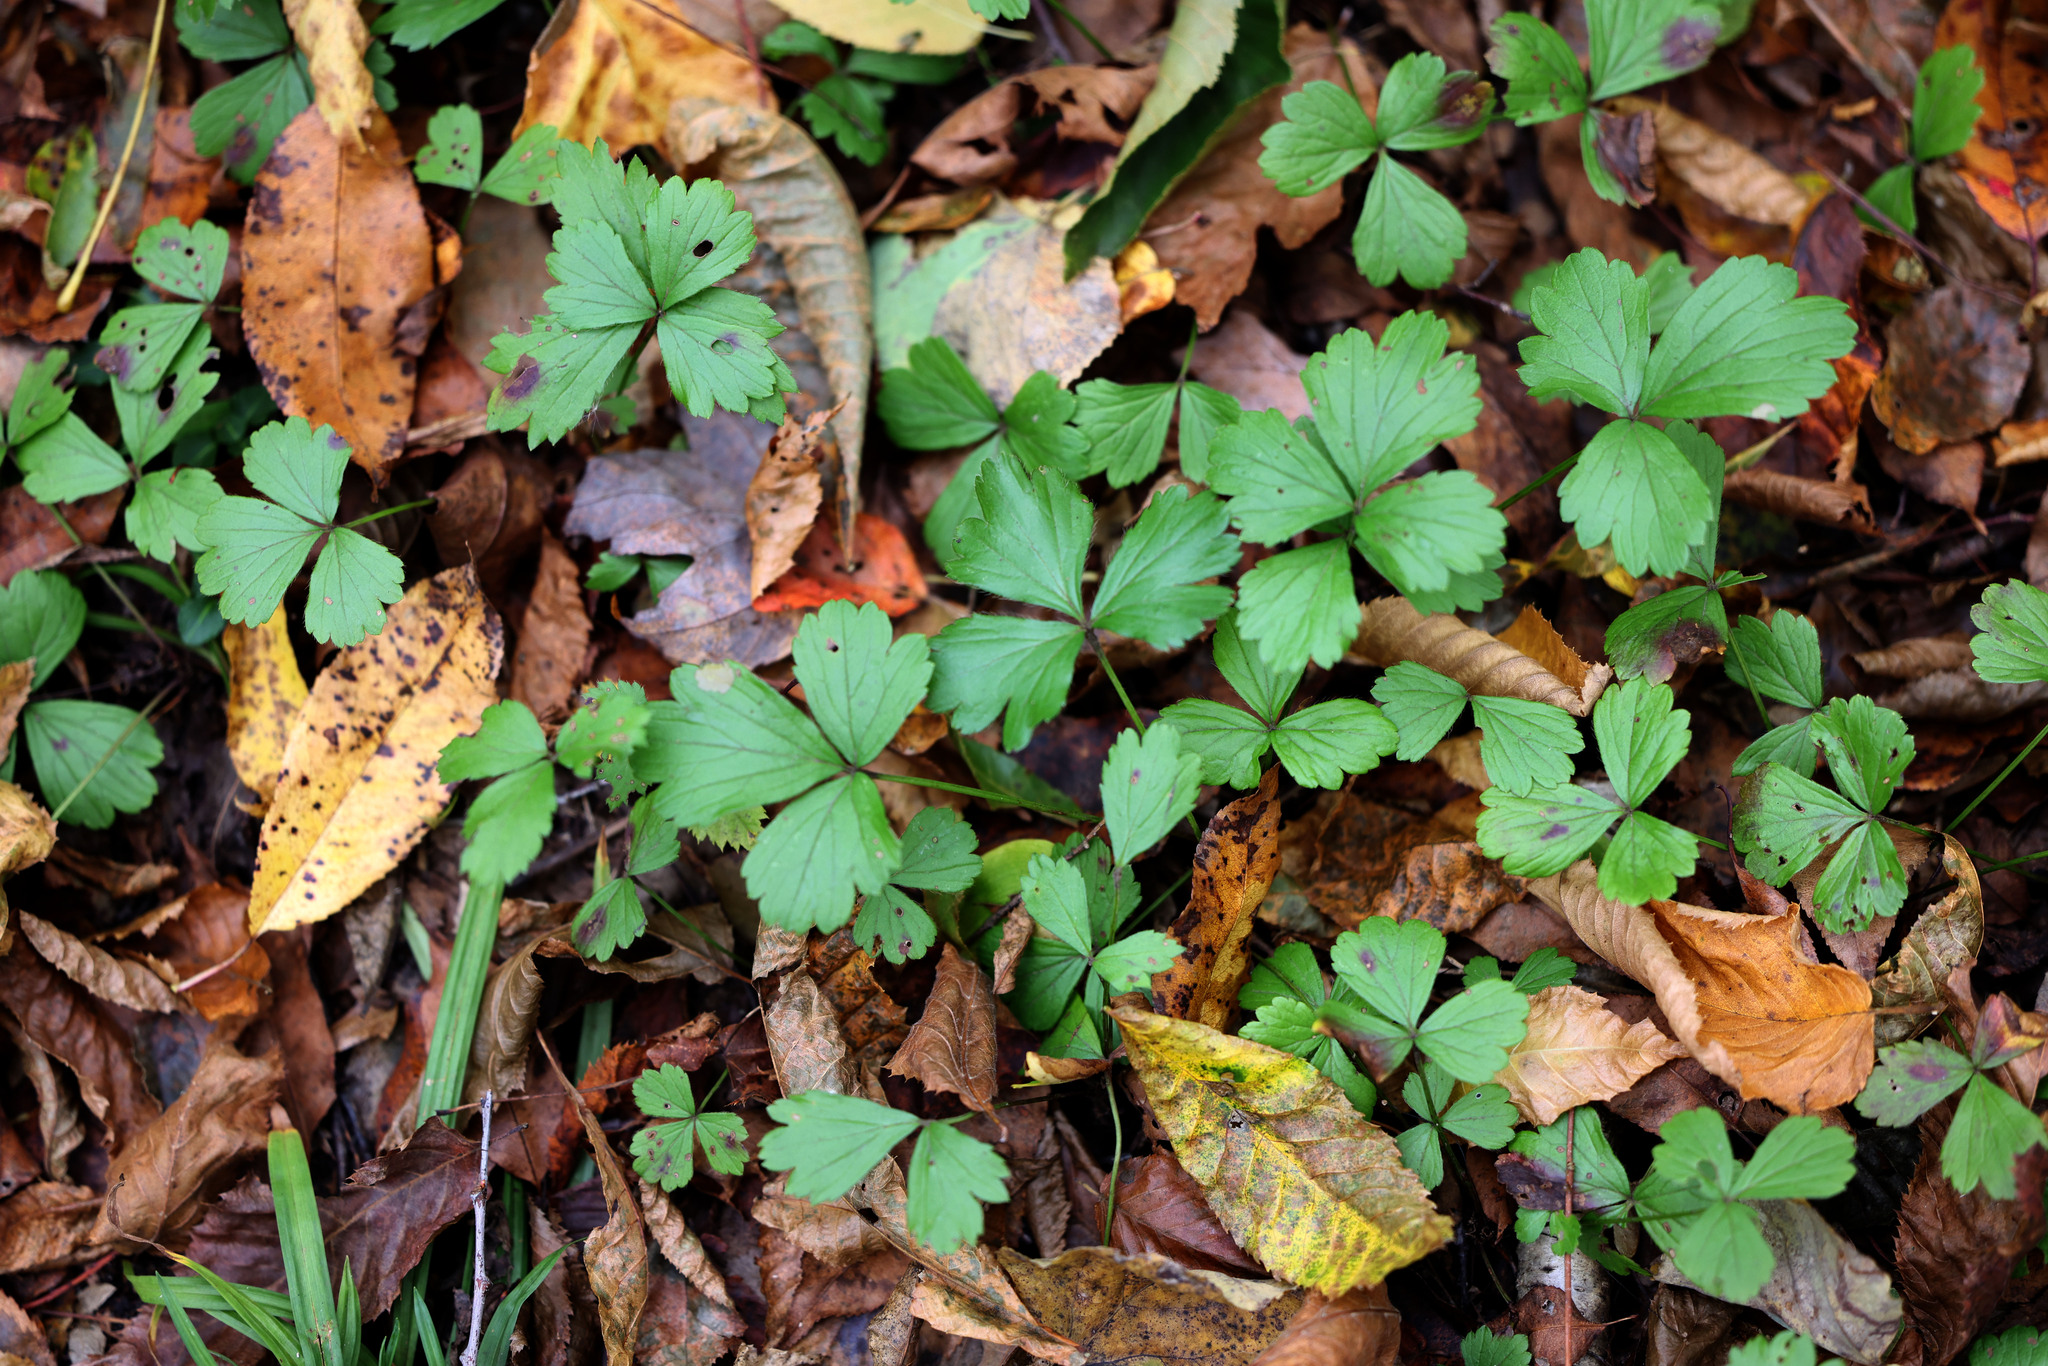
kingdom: Plantae
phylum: Tracheophyta
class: Magnoliopsida
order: Rosales
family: Rosaceae
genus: Geum
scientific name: Geum fragarioides
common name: Appalachian barren strawberry
